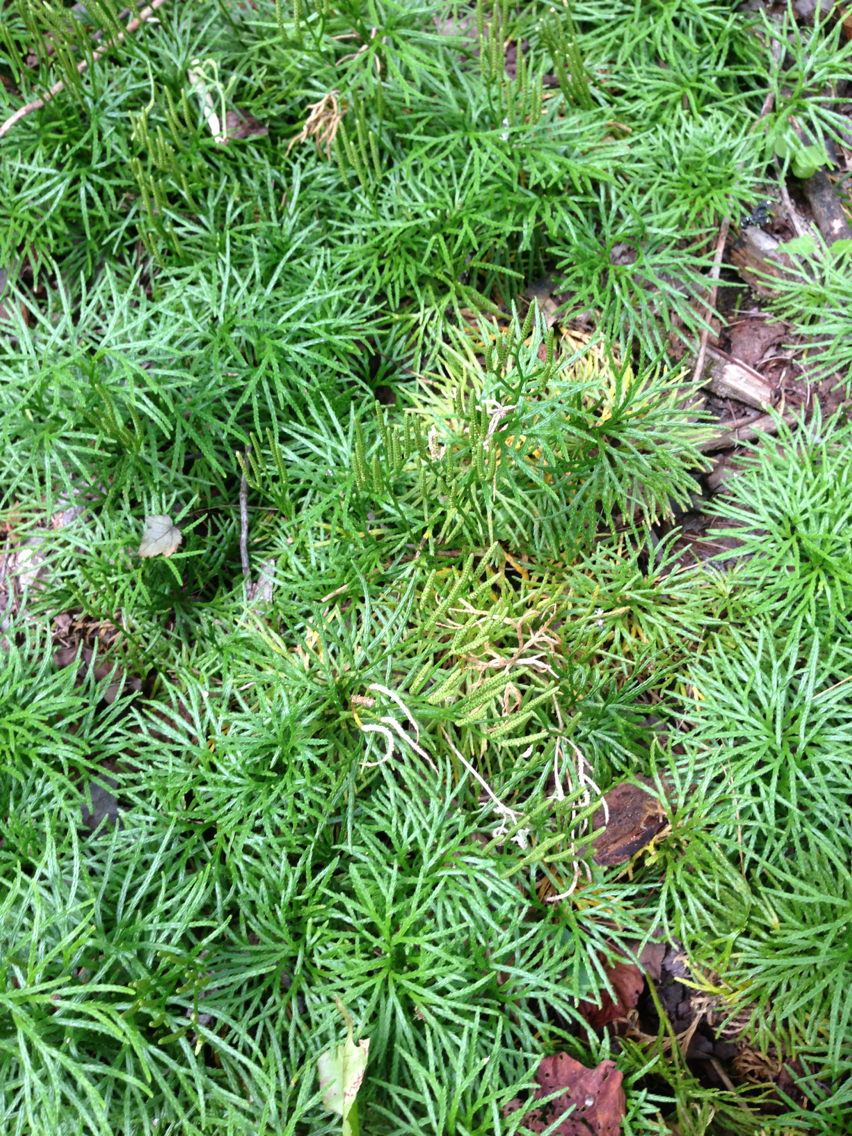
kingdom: Plantae
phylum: Tracheophyta
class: Lycopodiopsida
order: Lycopodiales
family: Lycopodiaceae
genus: Diphasiastrum
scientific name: Diphasiastrum digitatum
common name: Southern running-pine
